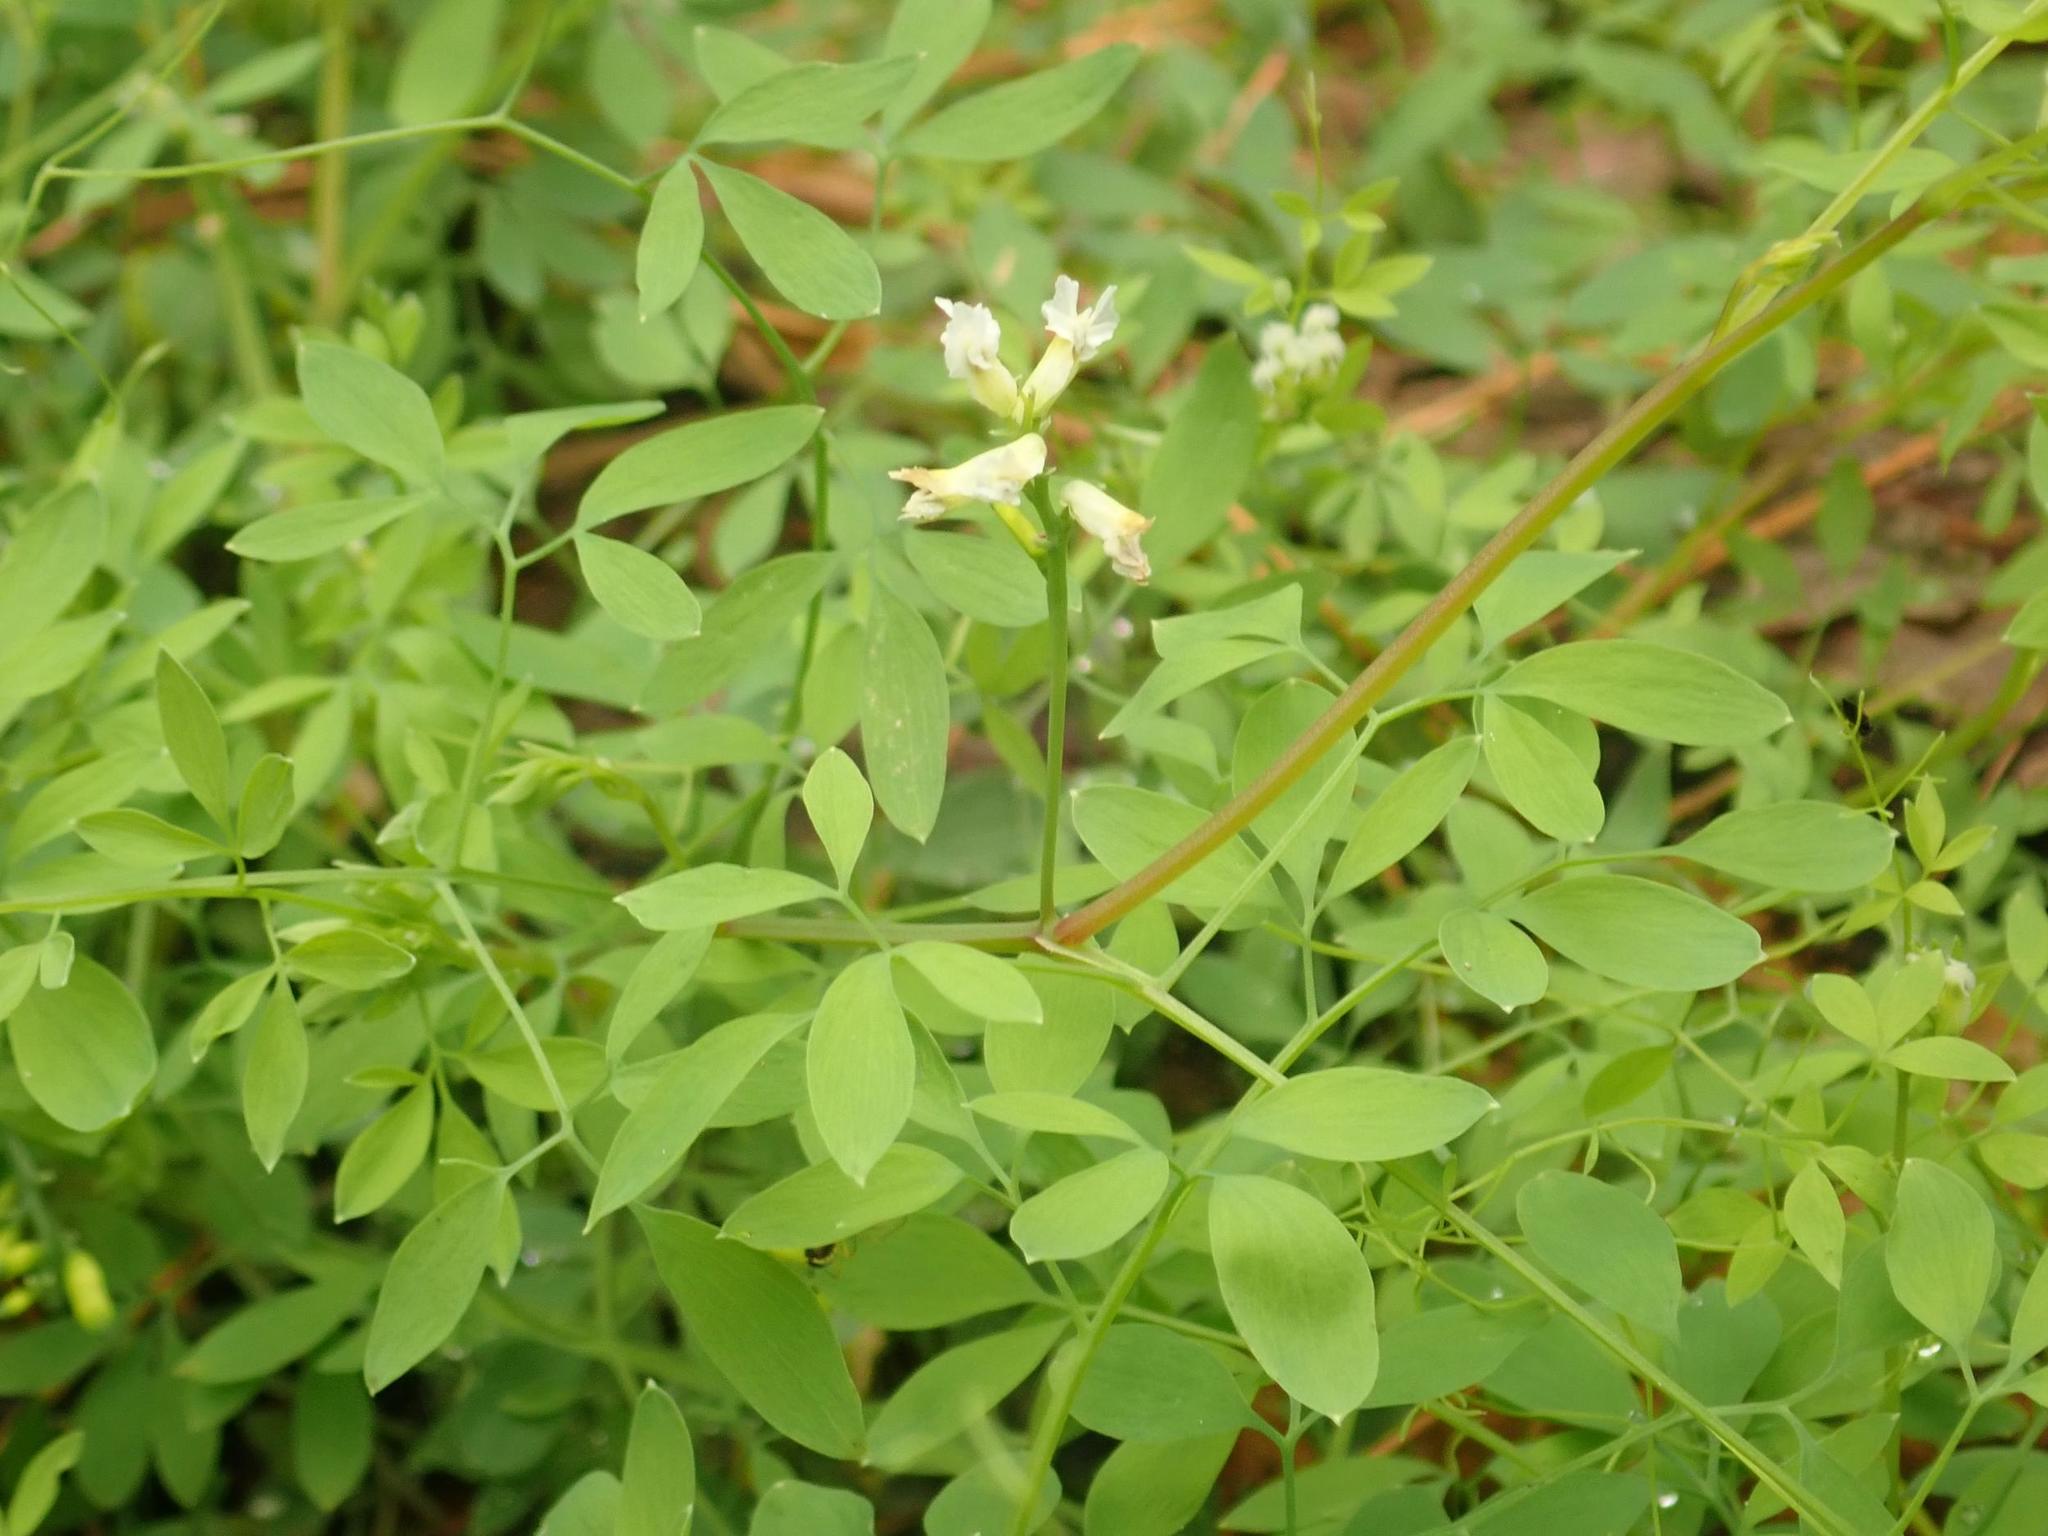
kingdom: Plantae
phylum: Tracheophyta
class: Magnoliopsida
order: Ranunculales
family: Papaveraceae
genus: Ceratocapnos
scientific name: Ceratocapnos claviculata
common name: Climbing corydalis
